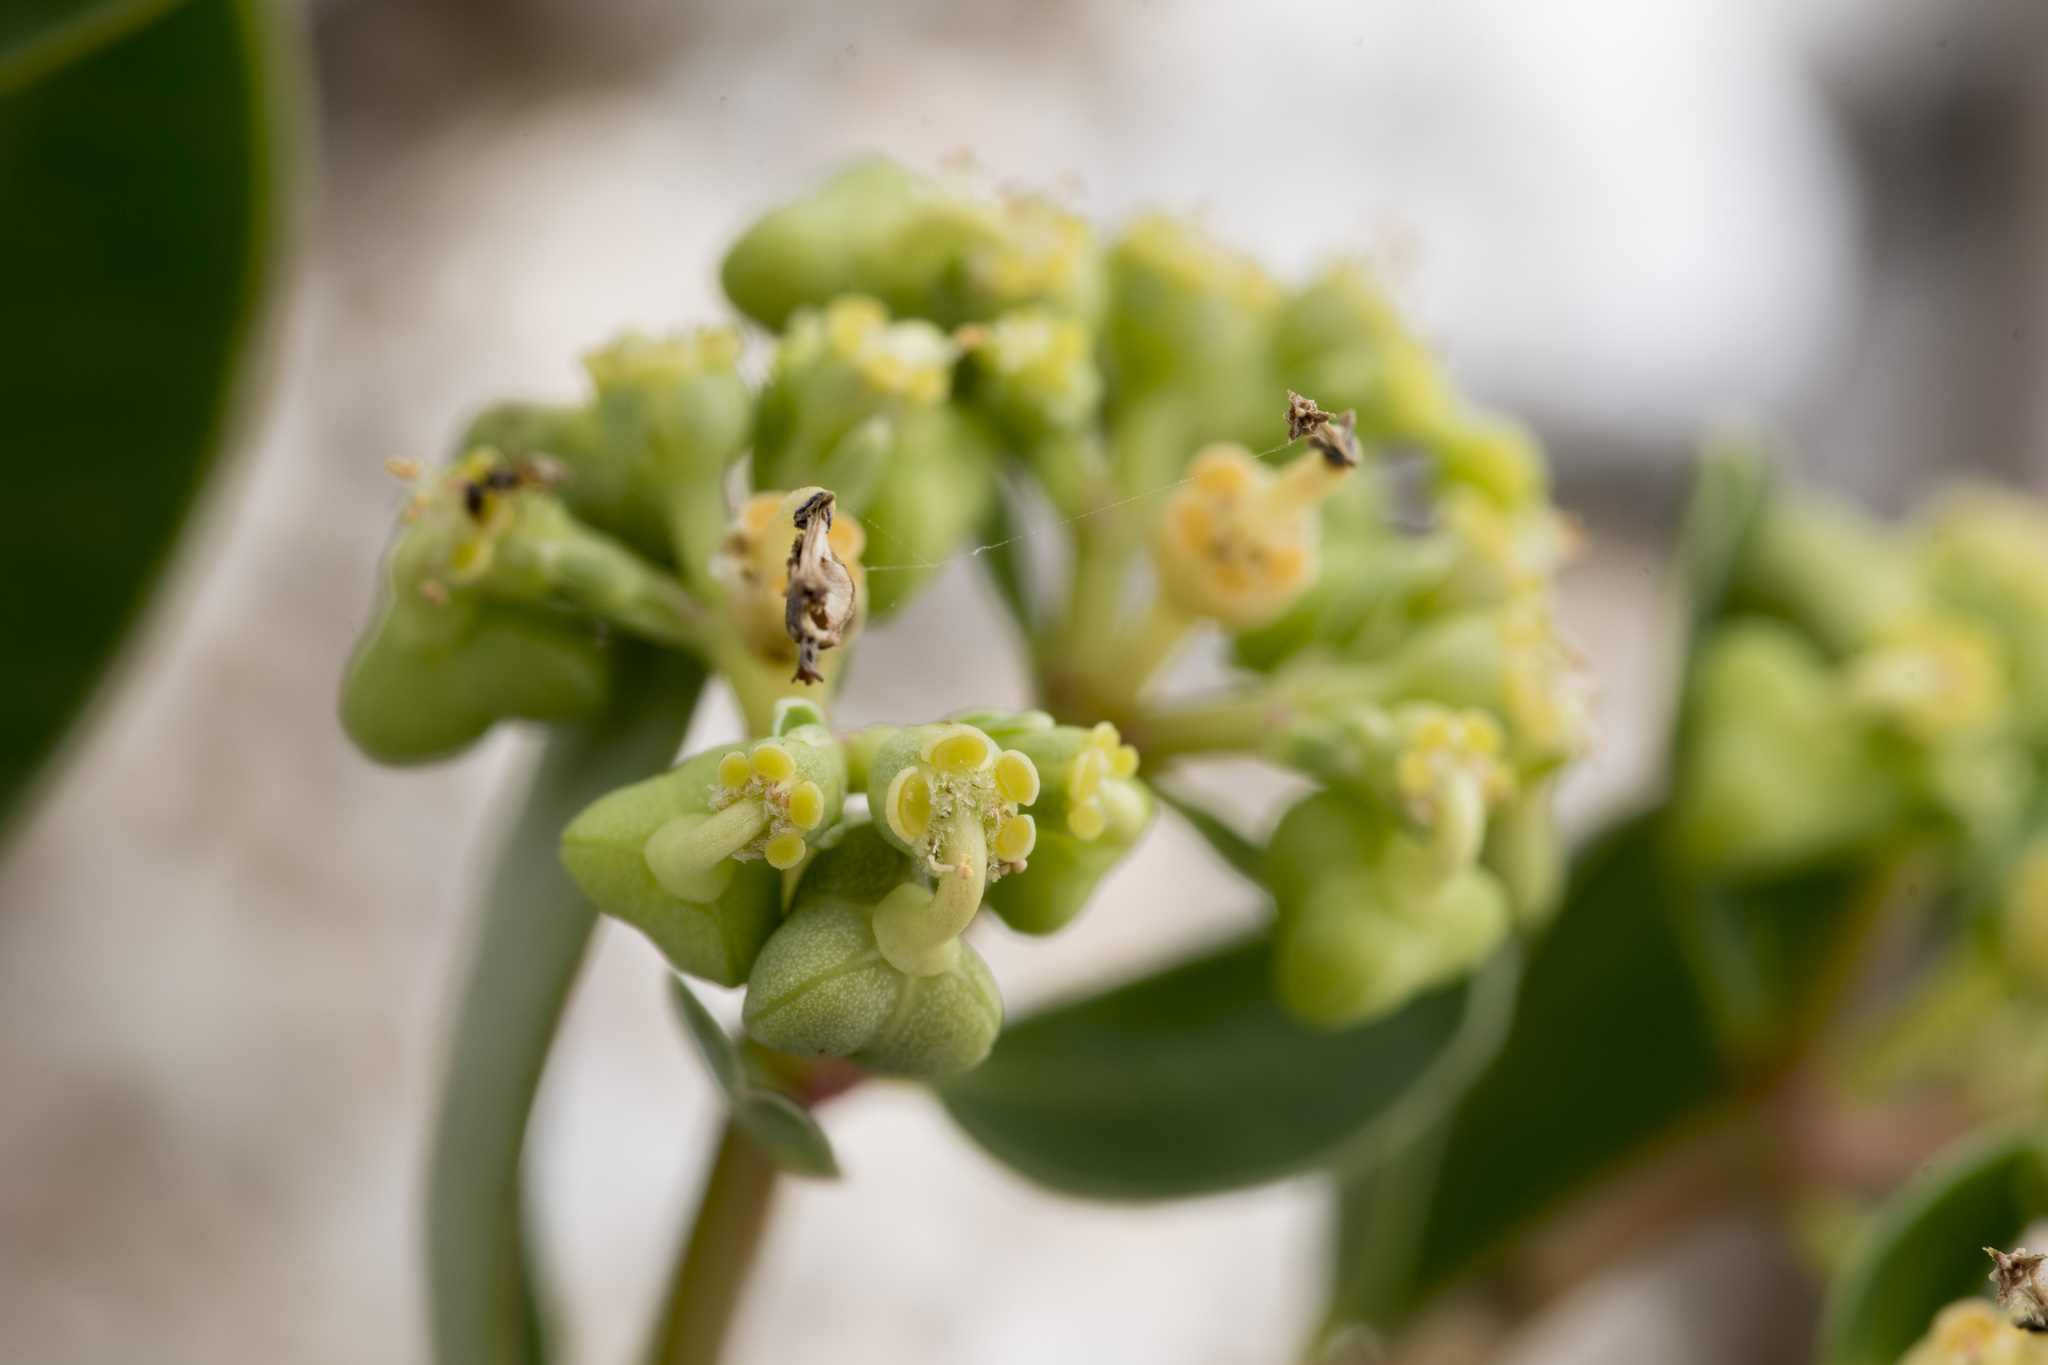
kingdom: Plantae
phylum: Tracheophyta
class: Magnoliopsida
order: Malpighiales
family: Euphorbiaceae
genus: Euphorbia
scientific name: Euphorbia atoto
